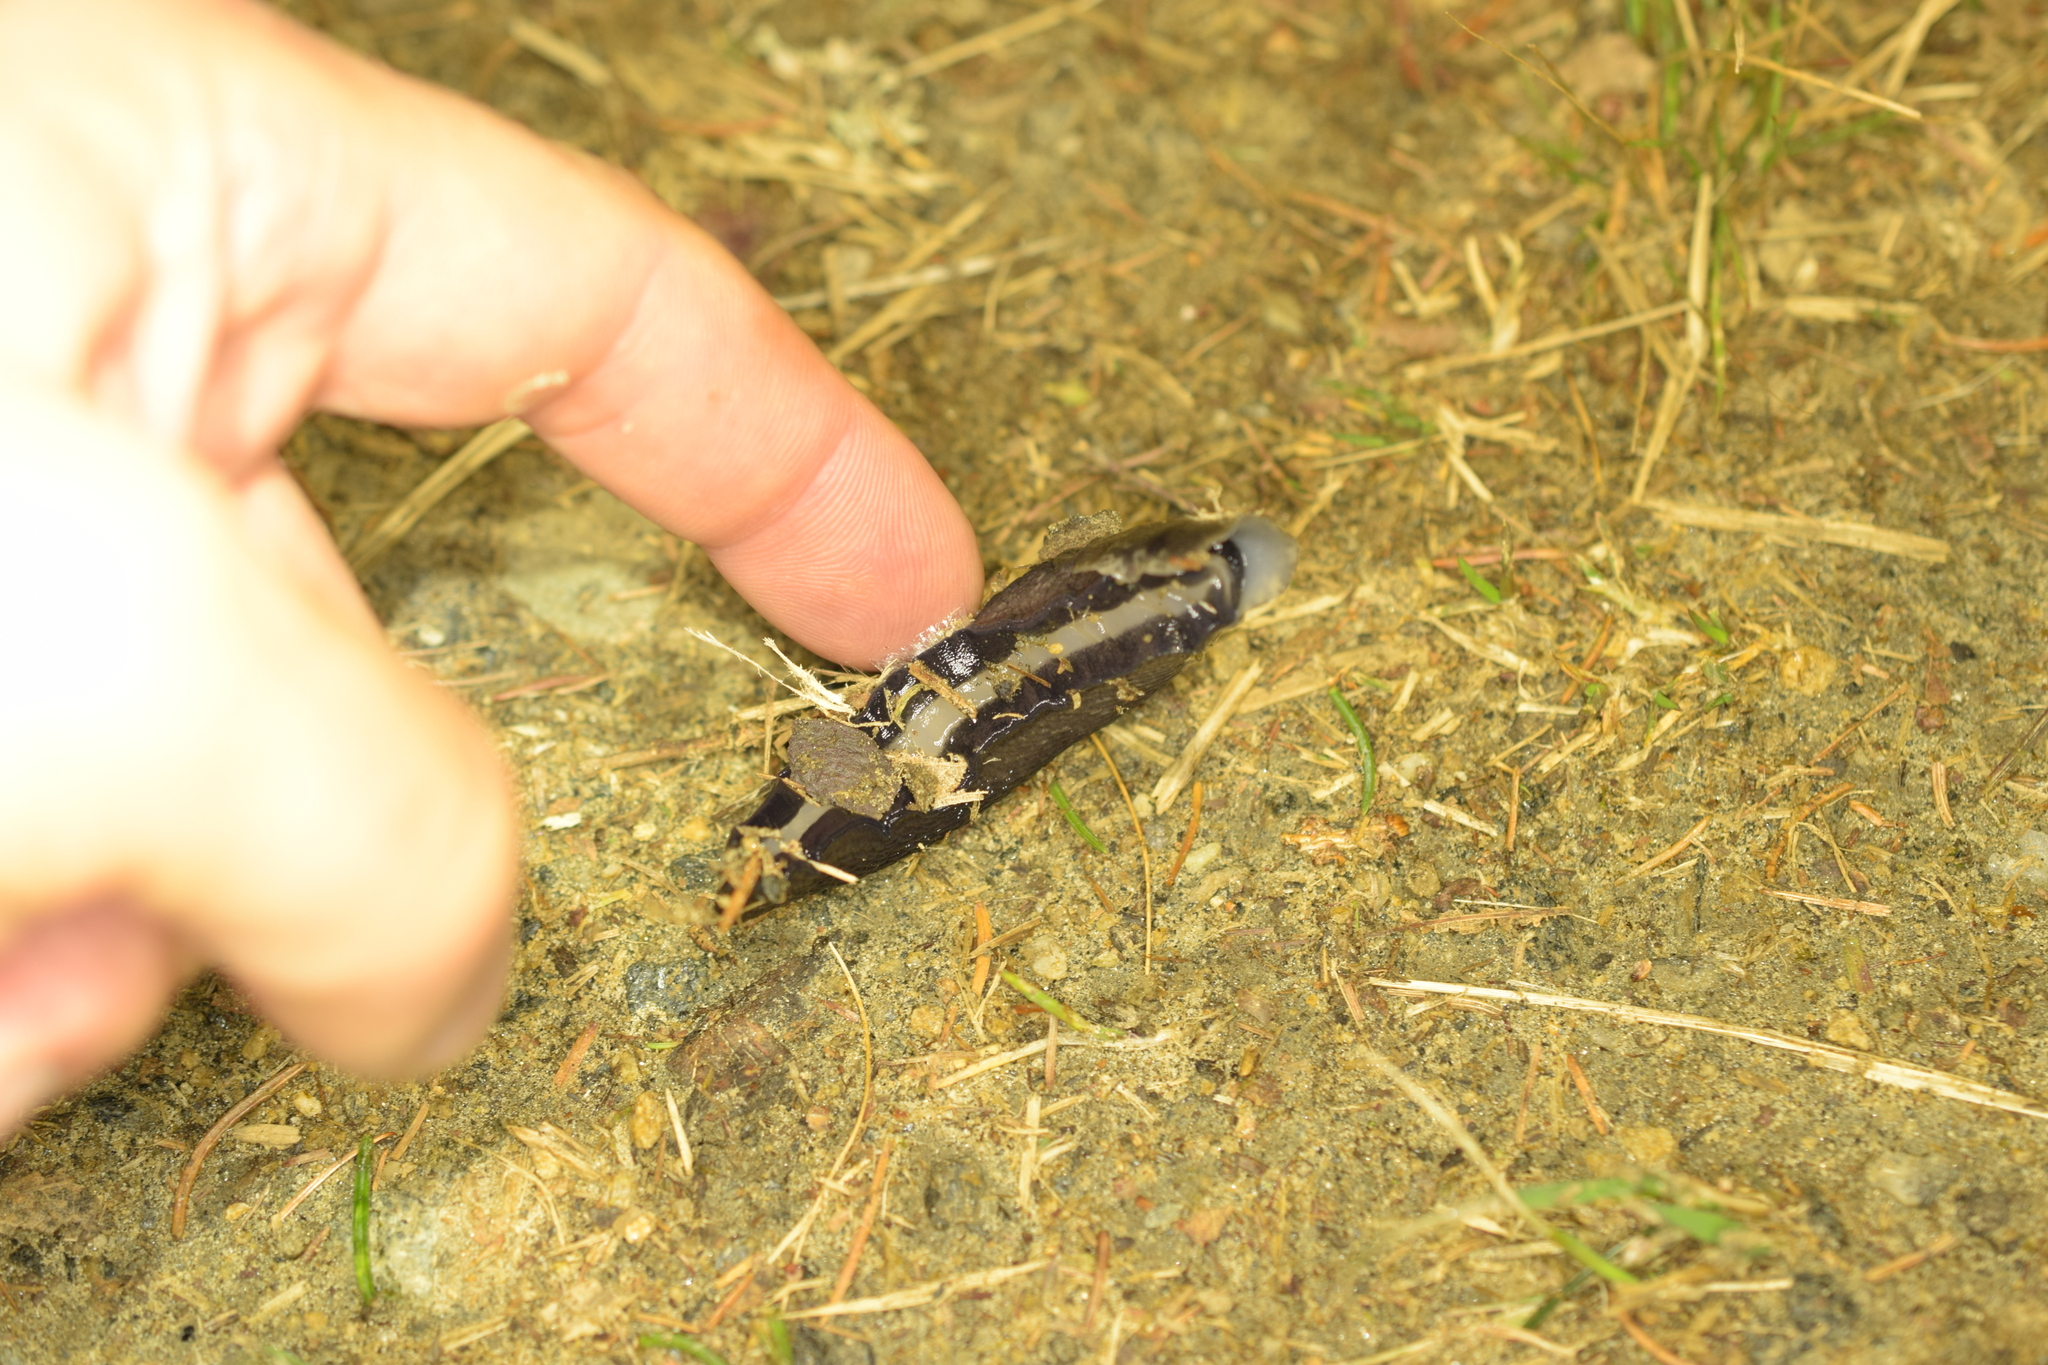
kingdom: Animalia
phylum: Mollusca
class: Gastropoda
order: Stylommatophora
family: Limacidae
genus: Limax
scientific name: Limax cinereoniger
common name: Ash-black slug
